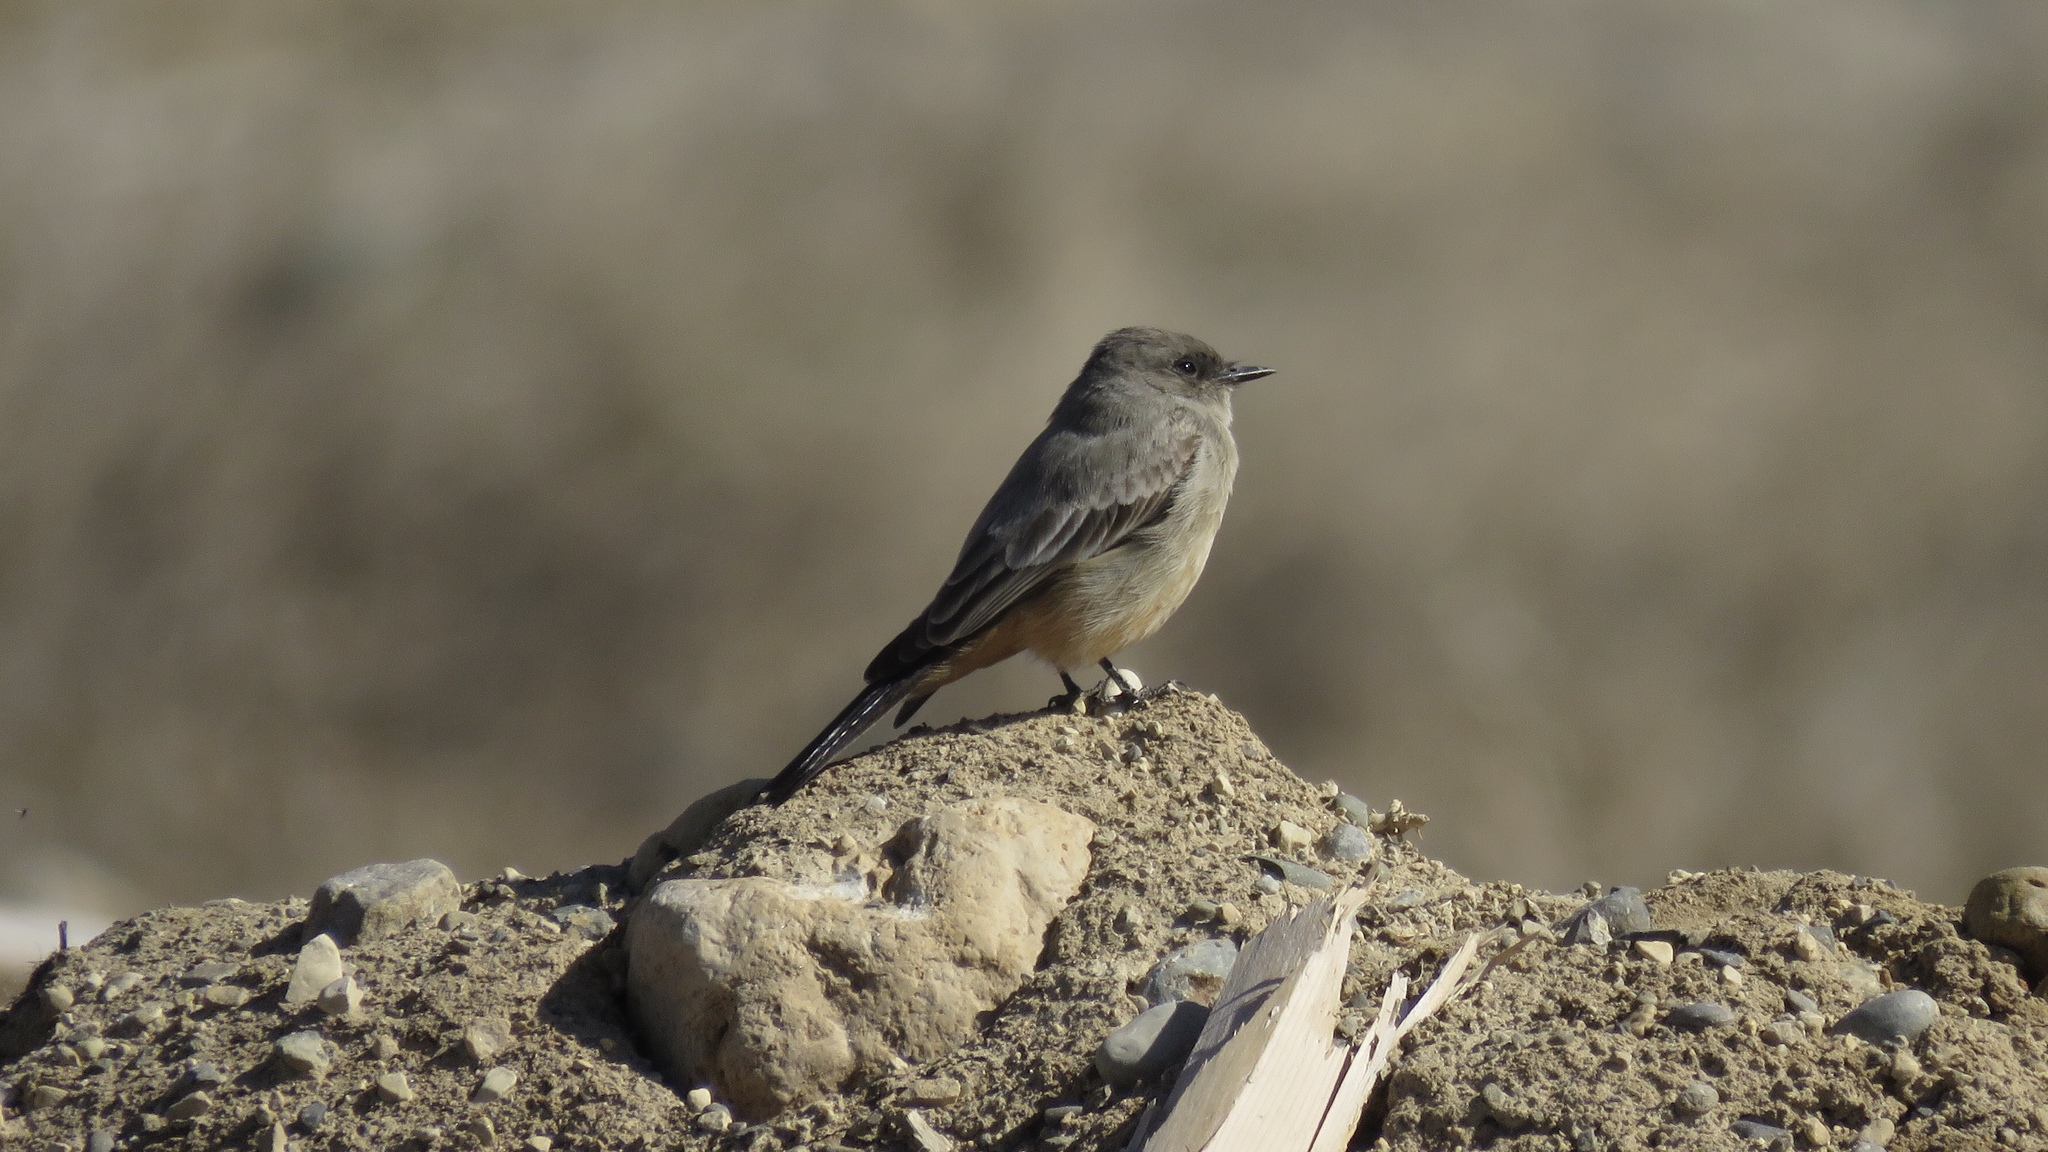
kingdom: Animalia
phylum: Chordata
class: Aves
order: Passeriformes
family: Tyrannidae
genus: Sayornis
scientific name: Sayornis saya
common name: Say's phoebe
